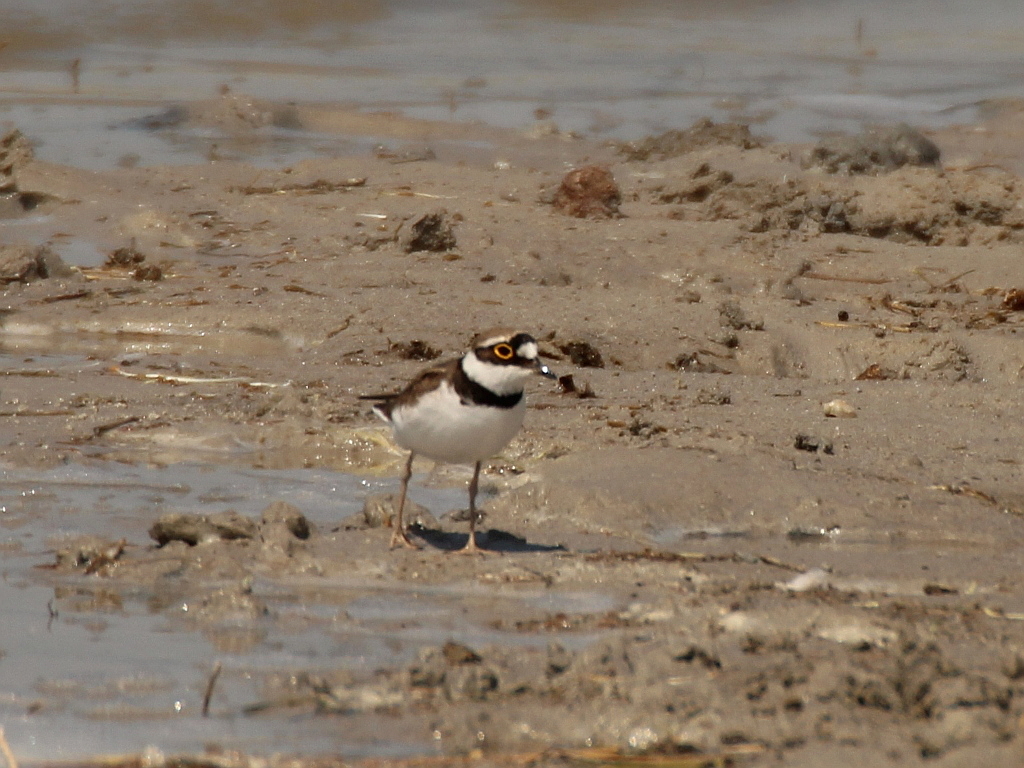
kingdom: Animalia
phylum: Chordata
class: Aves
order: Charadriiformes
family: Charadriidae
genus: Charadrius
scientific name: Charadrius dubius
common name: Little ringed plover
